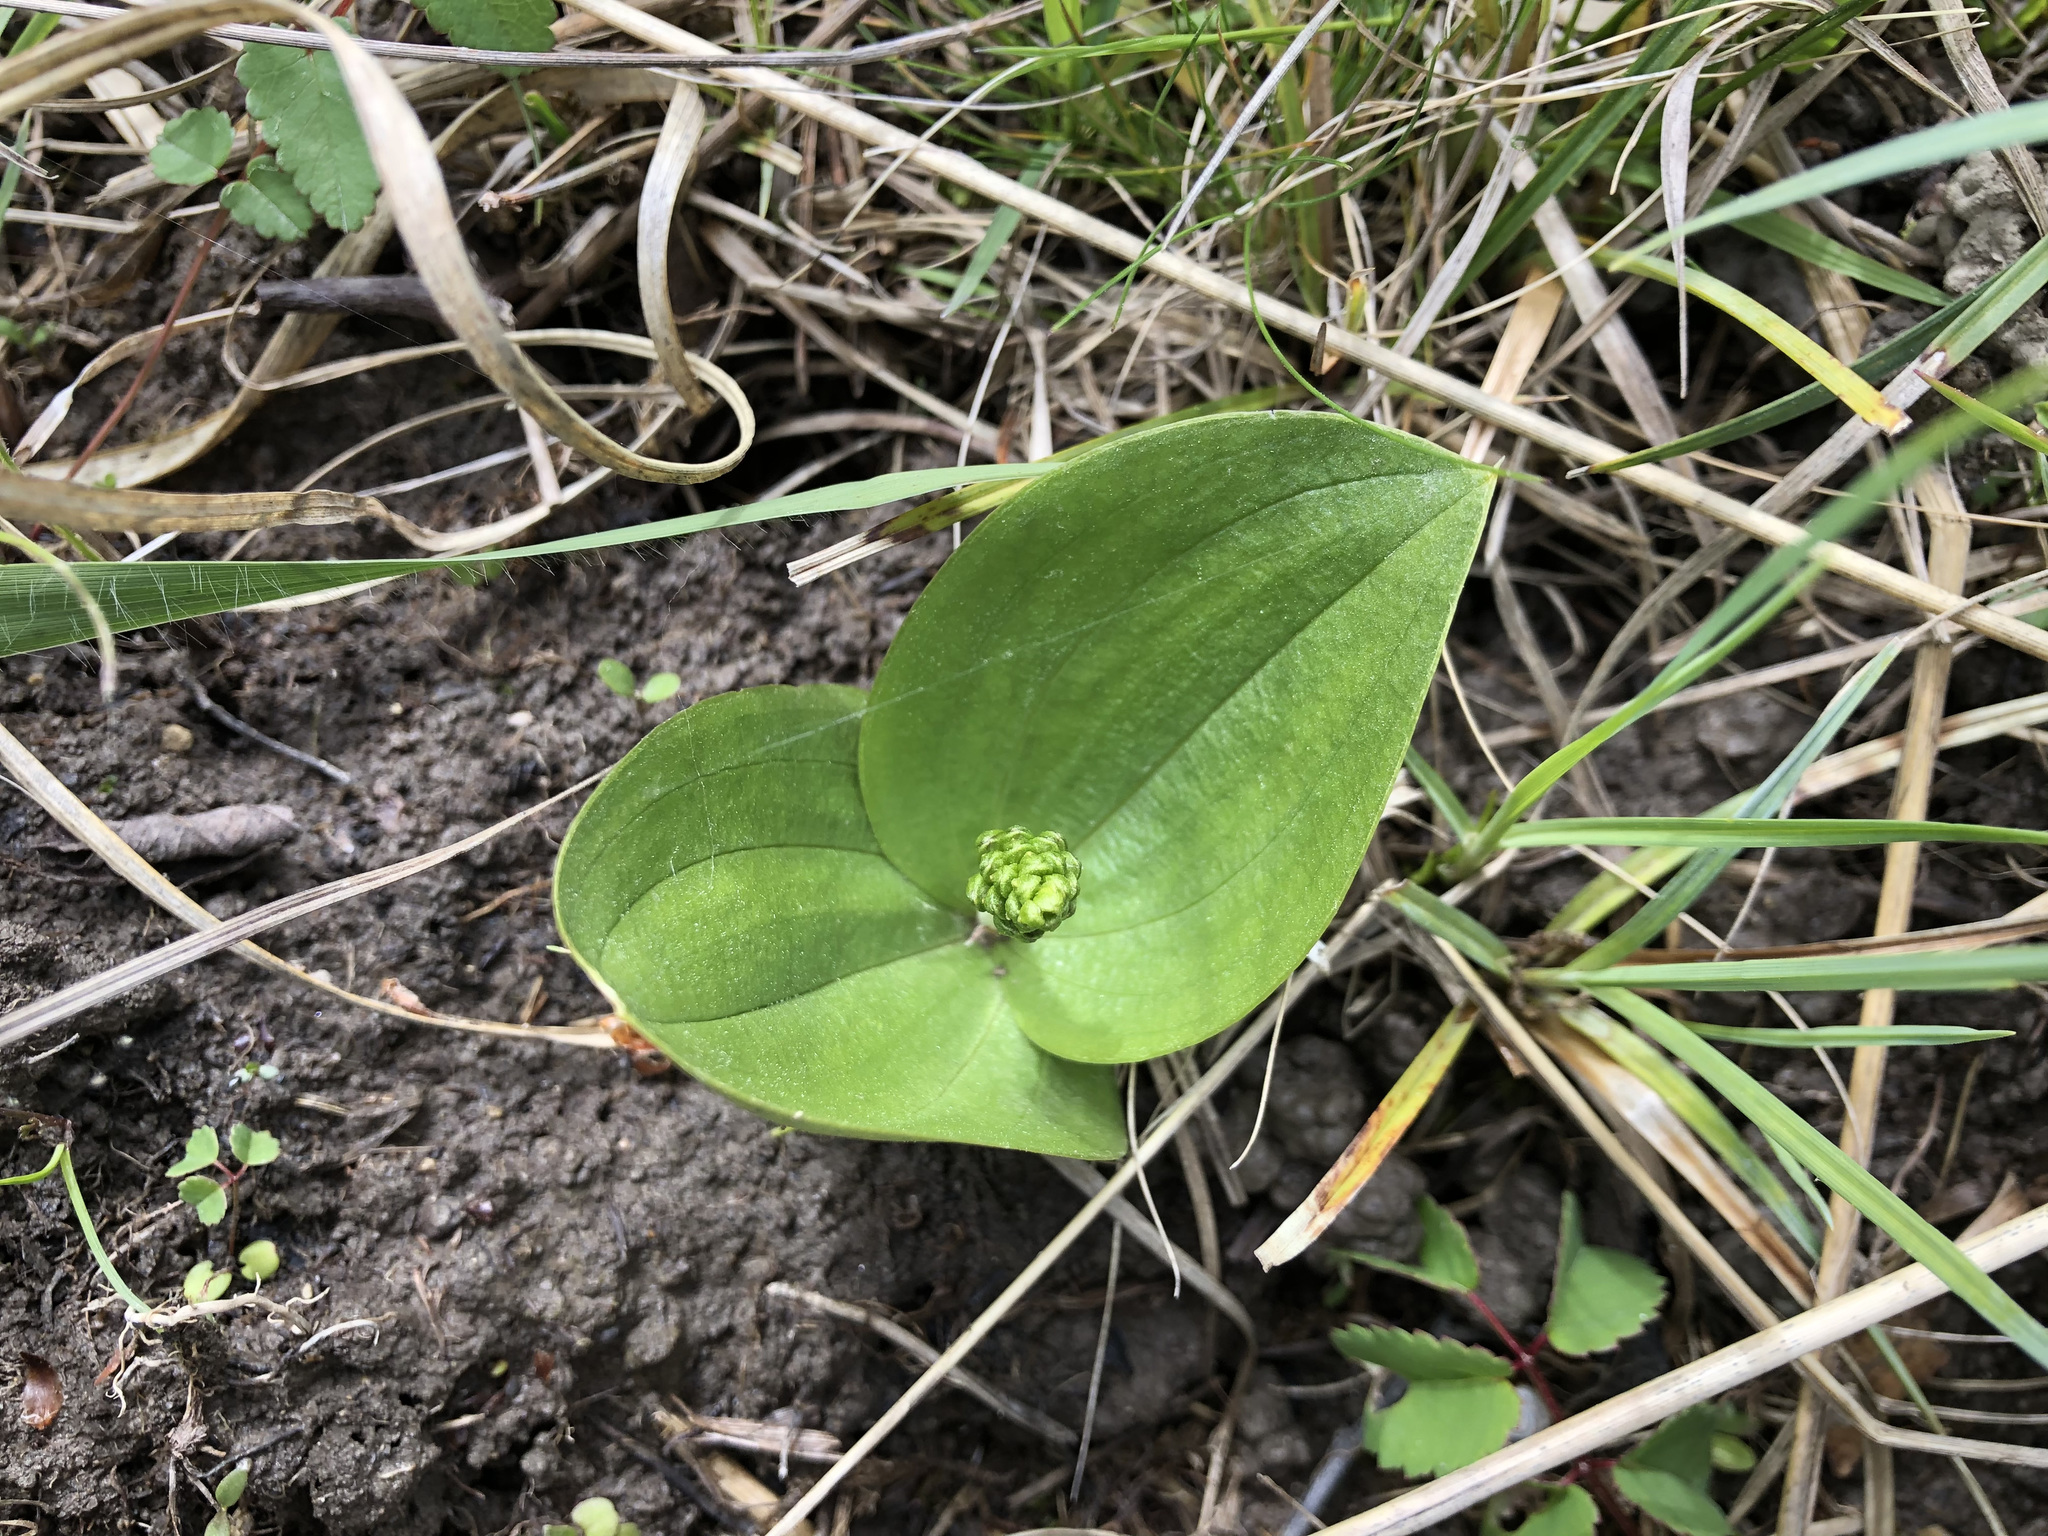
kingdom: Plantae
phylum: Tracheophyta
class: Liliopsida
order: Asparagales
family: Orchidaceae
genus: Neottia
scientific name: Neottia ovata
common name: Common twayblade
